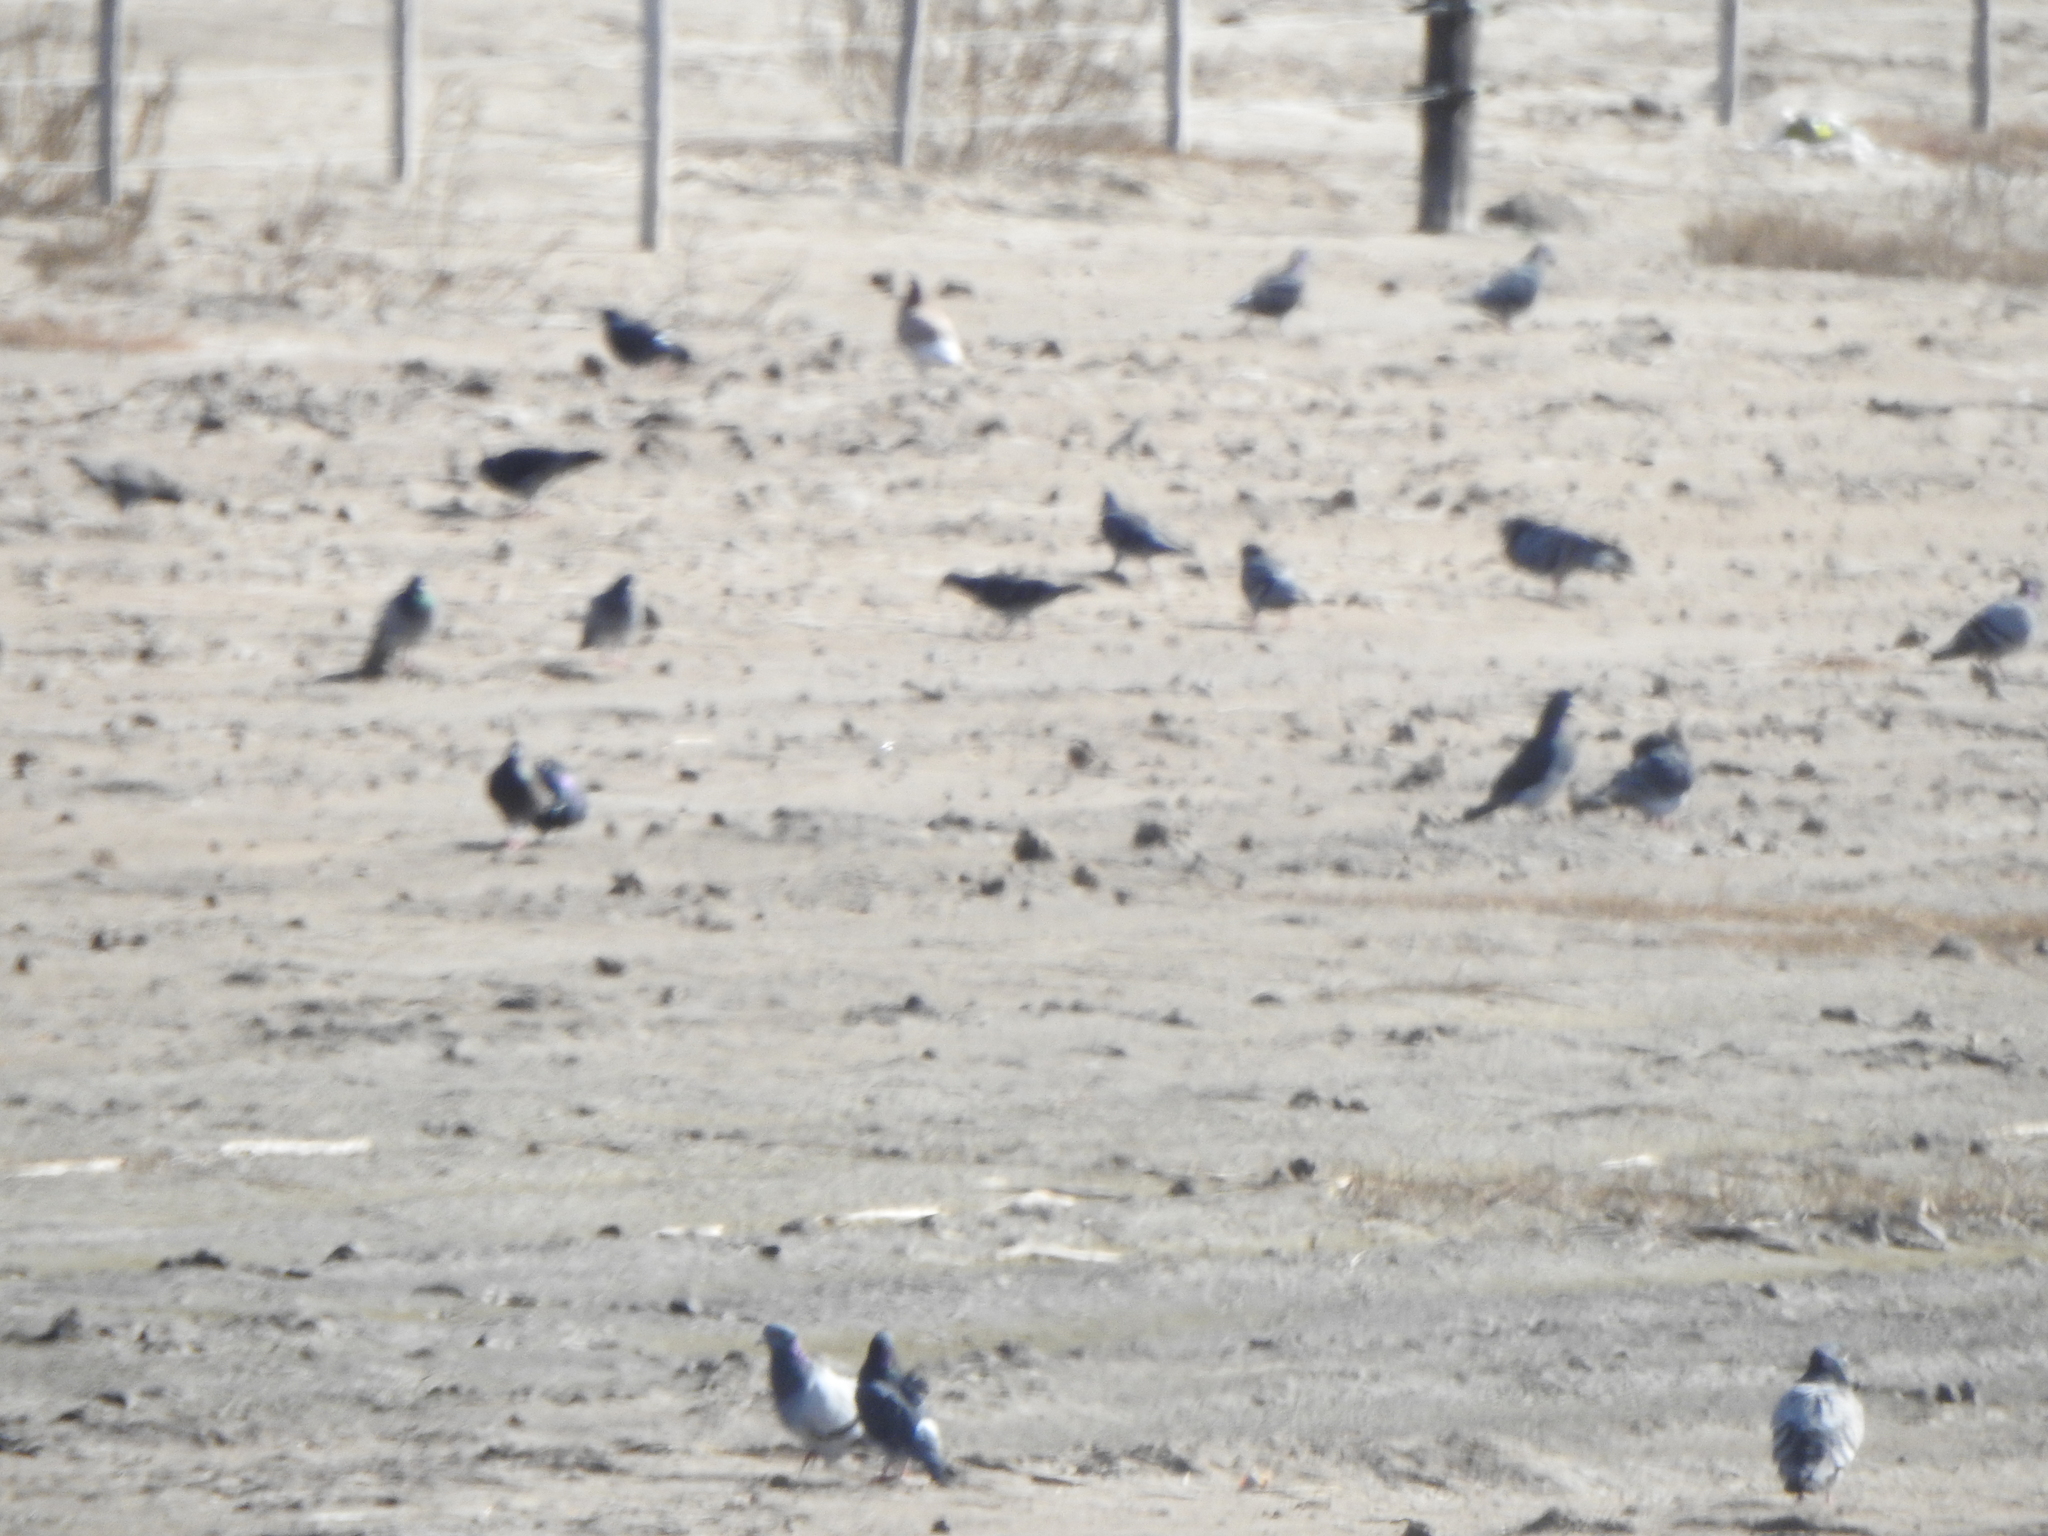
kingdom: Animalia
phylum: Chordata
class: Aves
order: Columbiformes
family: Columbidae
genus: Columba
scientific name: Columba livia
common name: Rock pigeon
